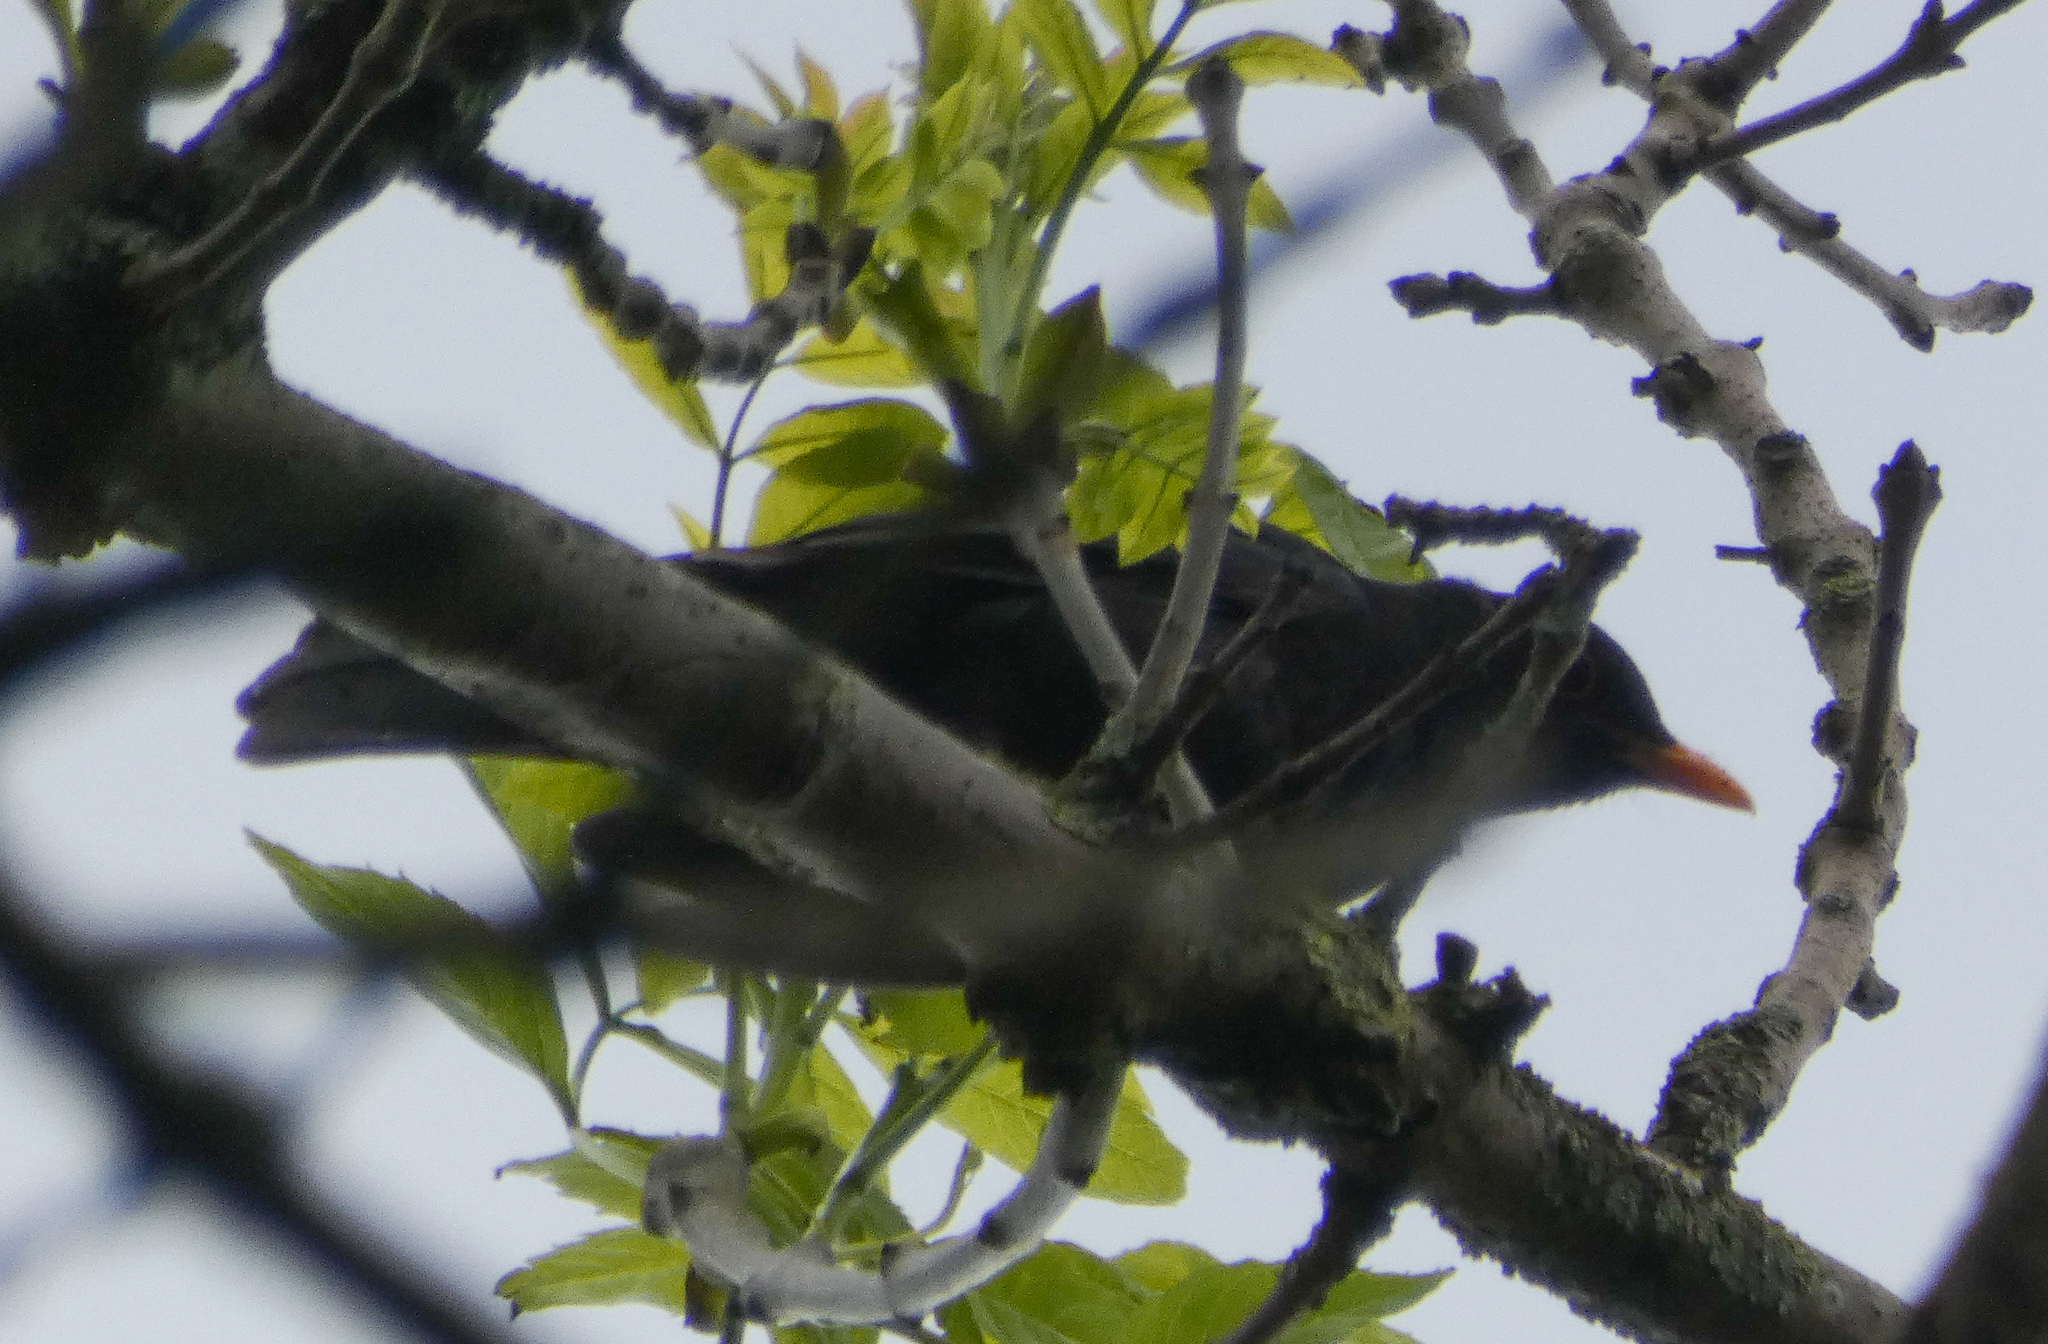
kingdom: Animalia
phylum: Chordata
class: Aves
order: Passeriformes
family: Turdidae
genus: Turdus
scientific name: Turdus merula
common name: Common blackbird
